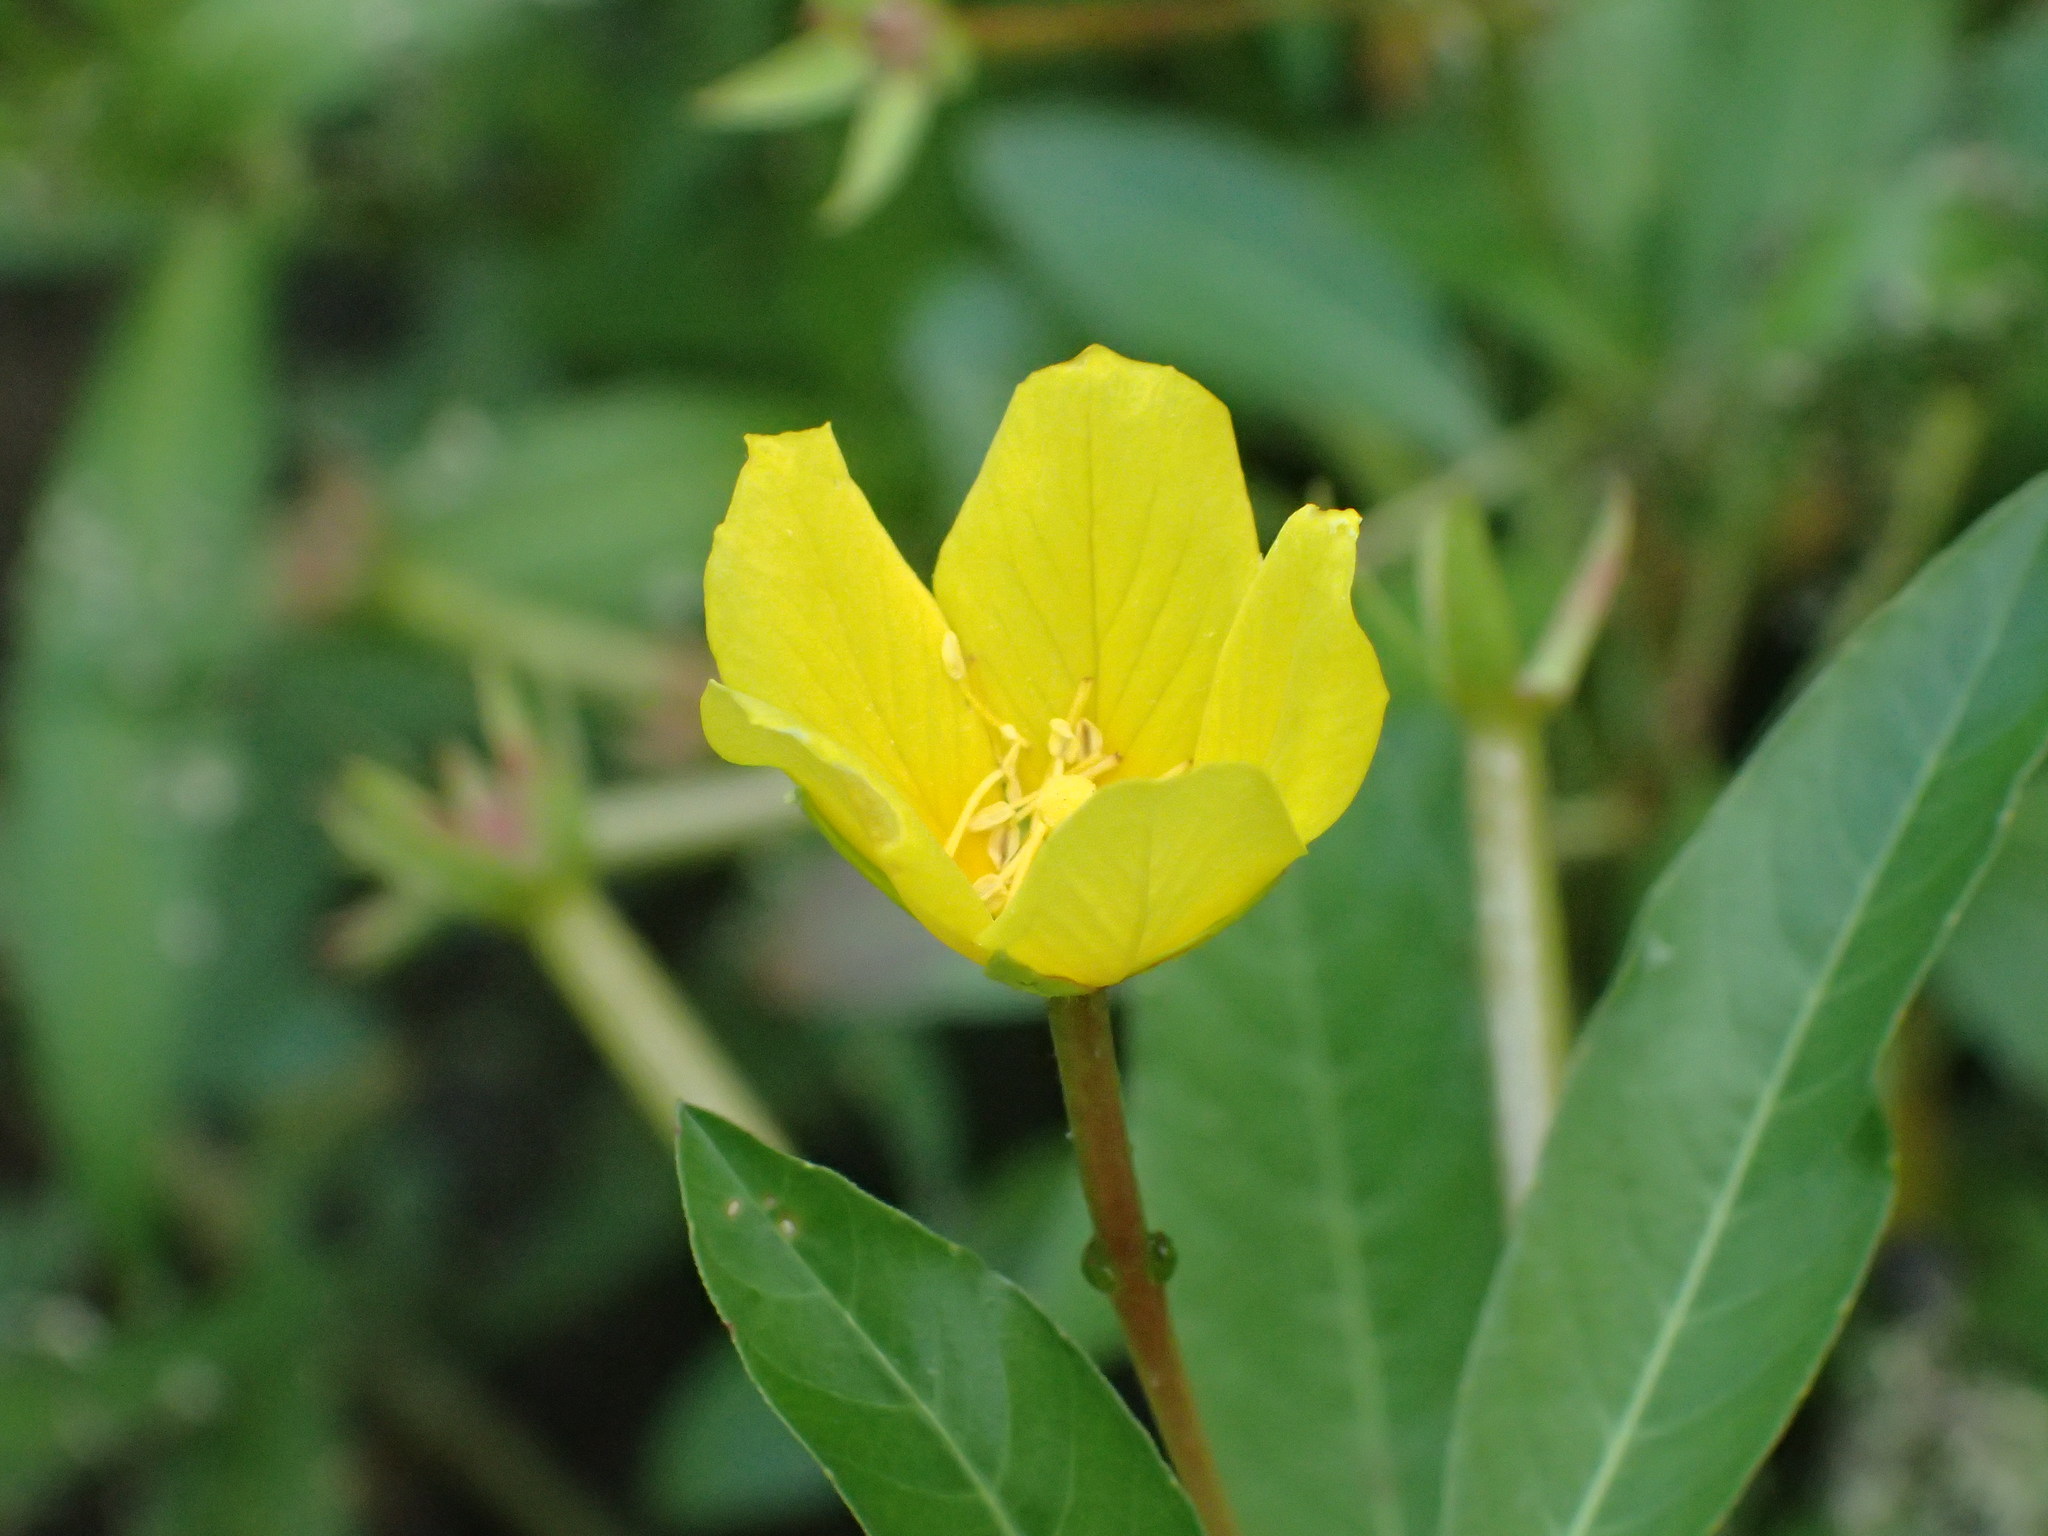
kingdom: Plantae
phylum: Tracheophyta
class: Magnoliopsida
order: Myrtales
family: Onagraceae
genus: Ludwigia
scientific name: Ludwigia peploides
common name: Floating primrose-willow
